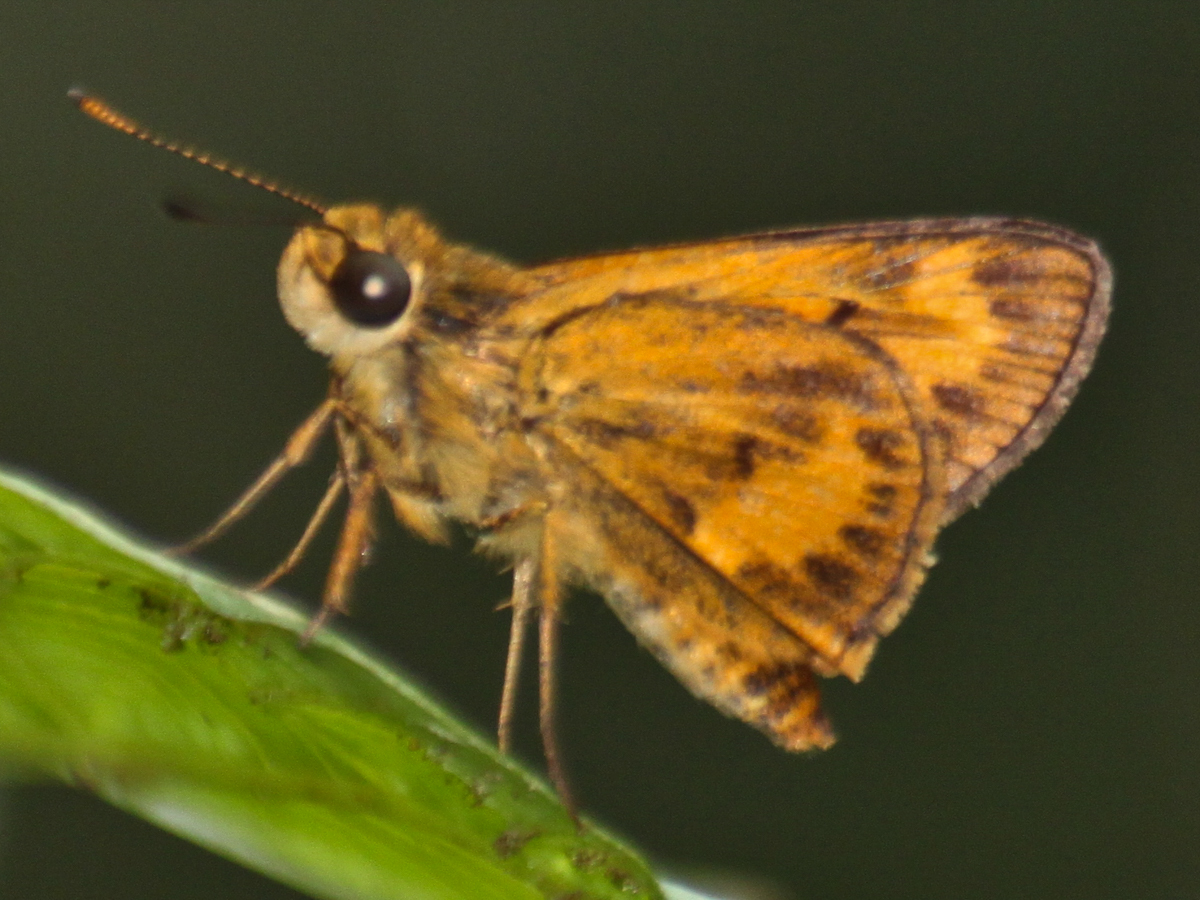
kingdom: Animalia
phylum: Arthropoda
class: Insecta
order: Lepidoptera
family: Hesperiidae
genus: Oriens
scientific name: Oriens gola
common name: Common dartlet
